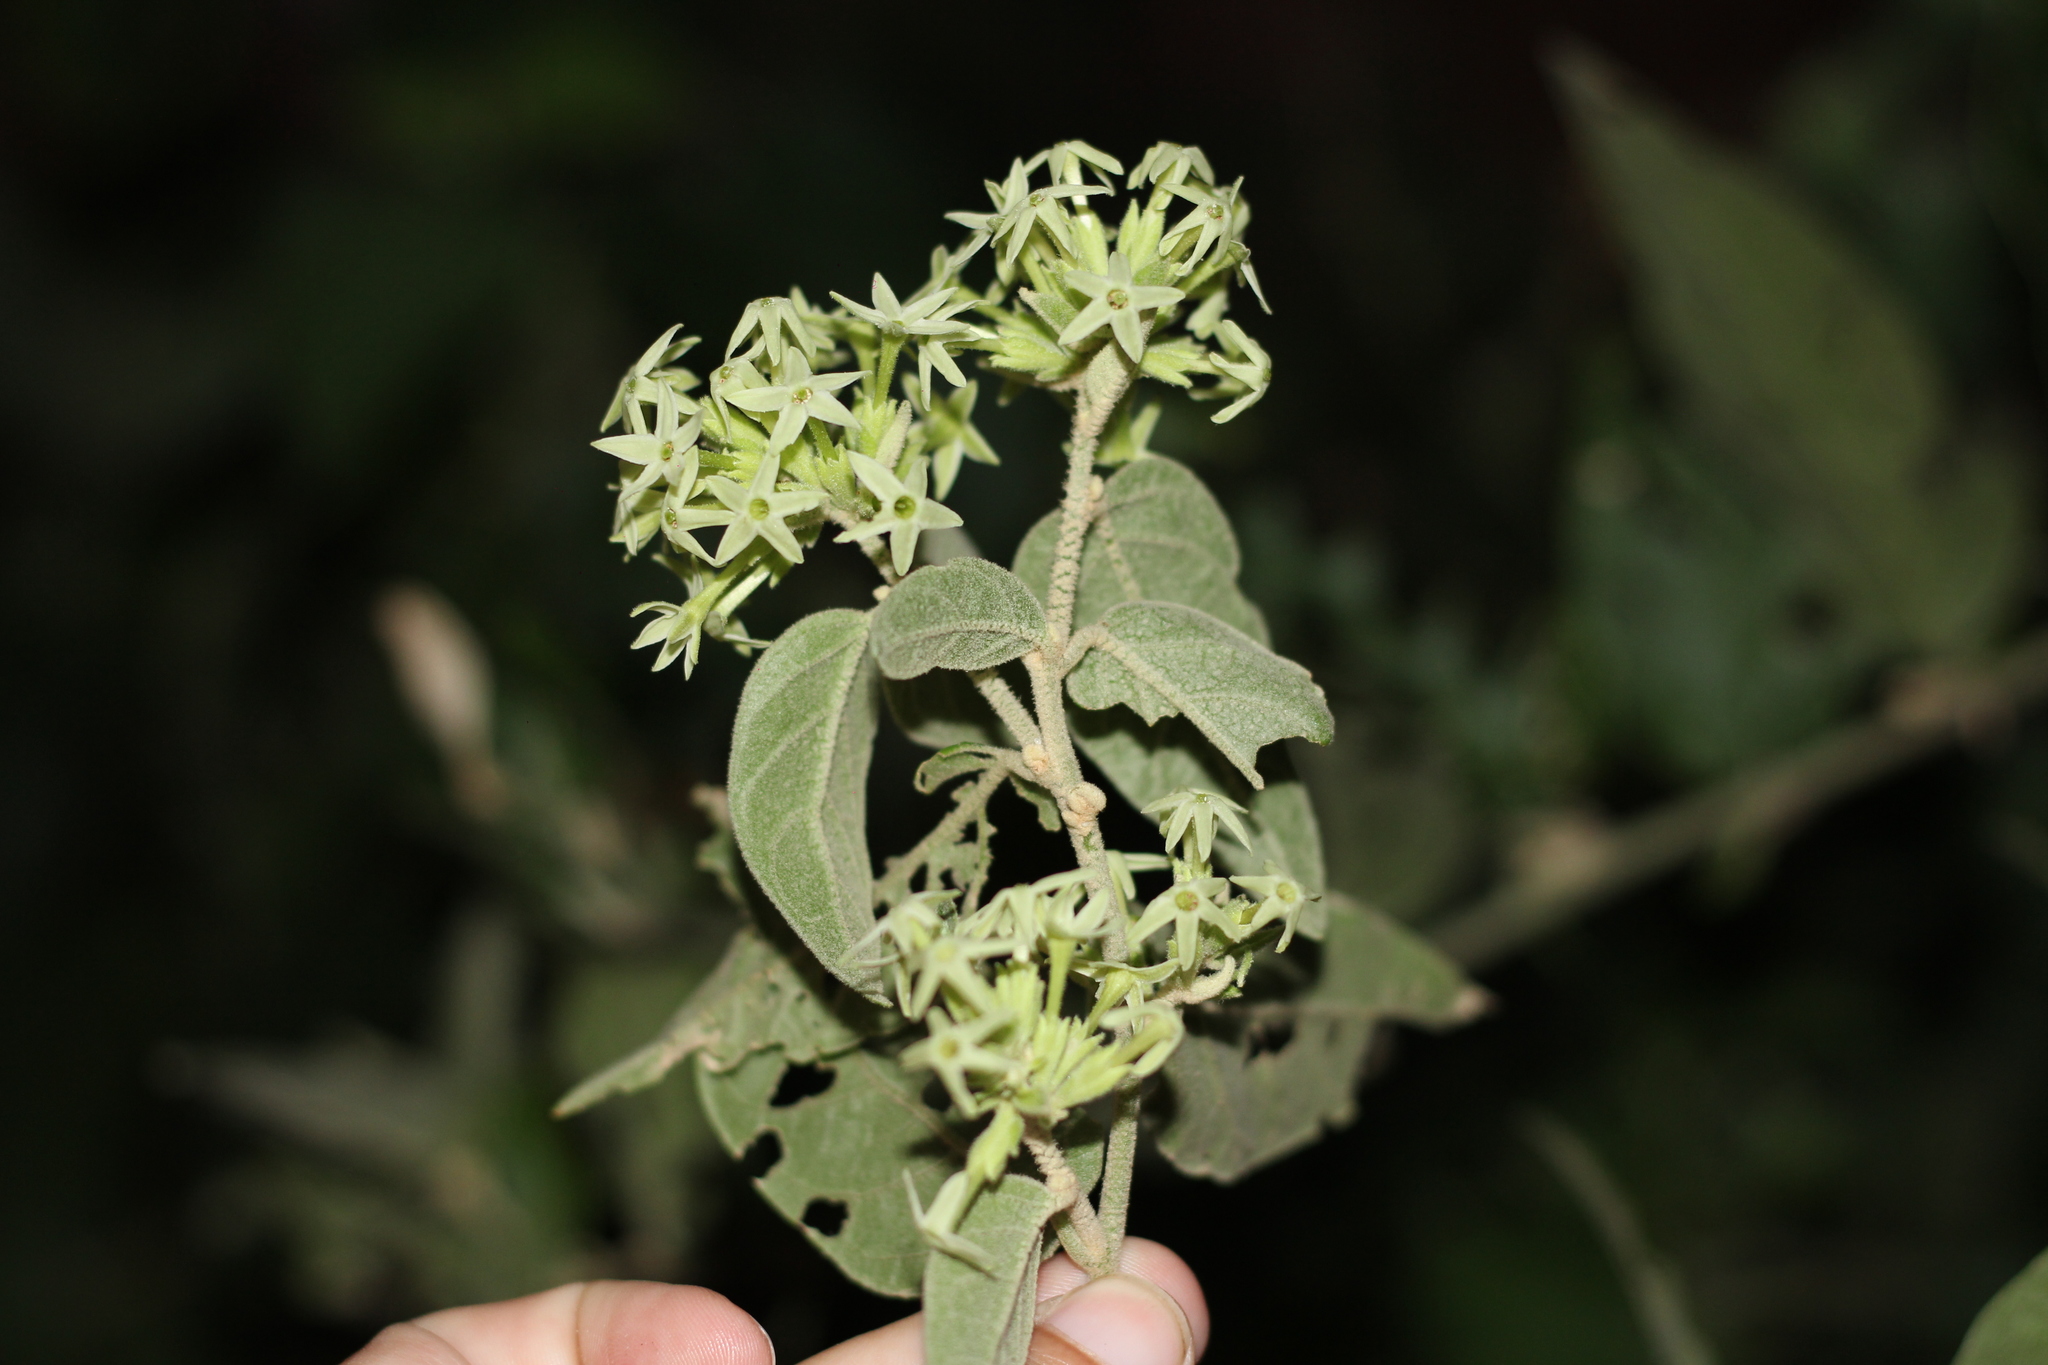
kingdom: Plantae
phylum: Tracheophyta
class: Magnoliopsida
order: Solanales
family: Solanaceae
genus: Cestrum
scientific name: Cestrum strigillatum
